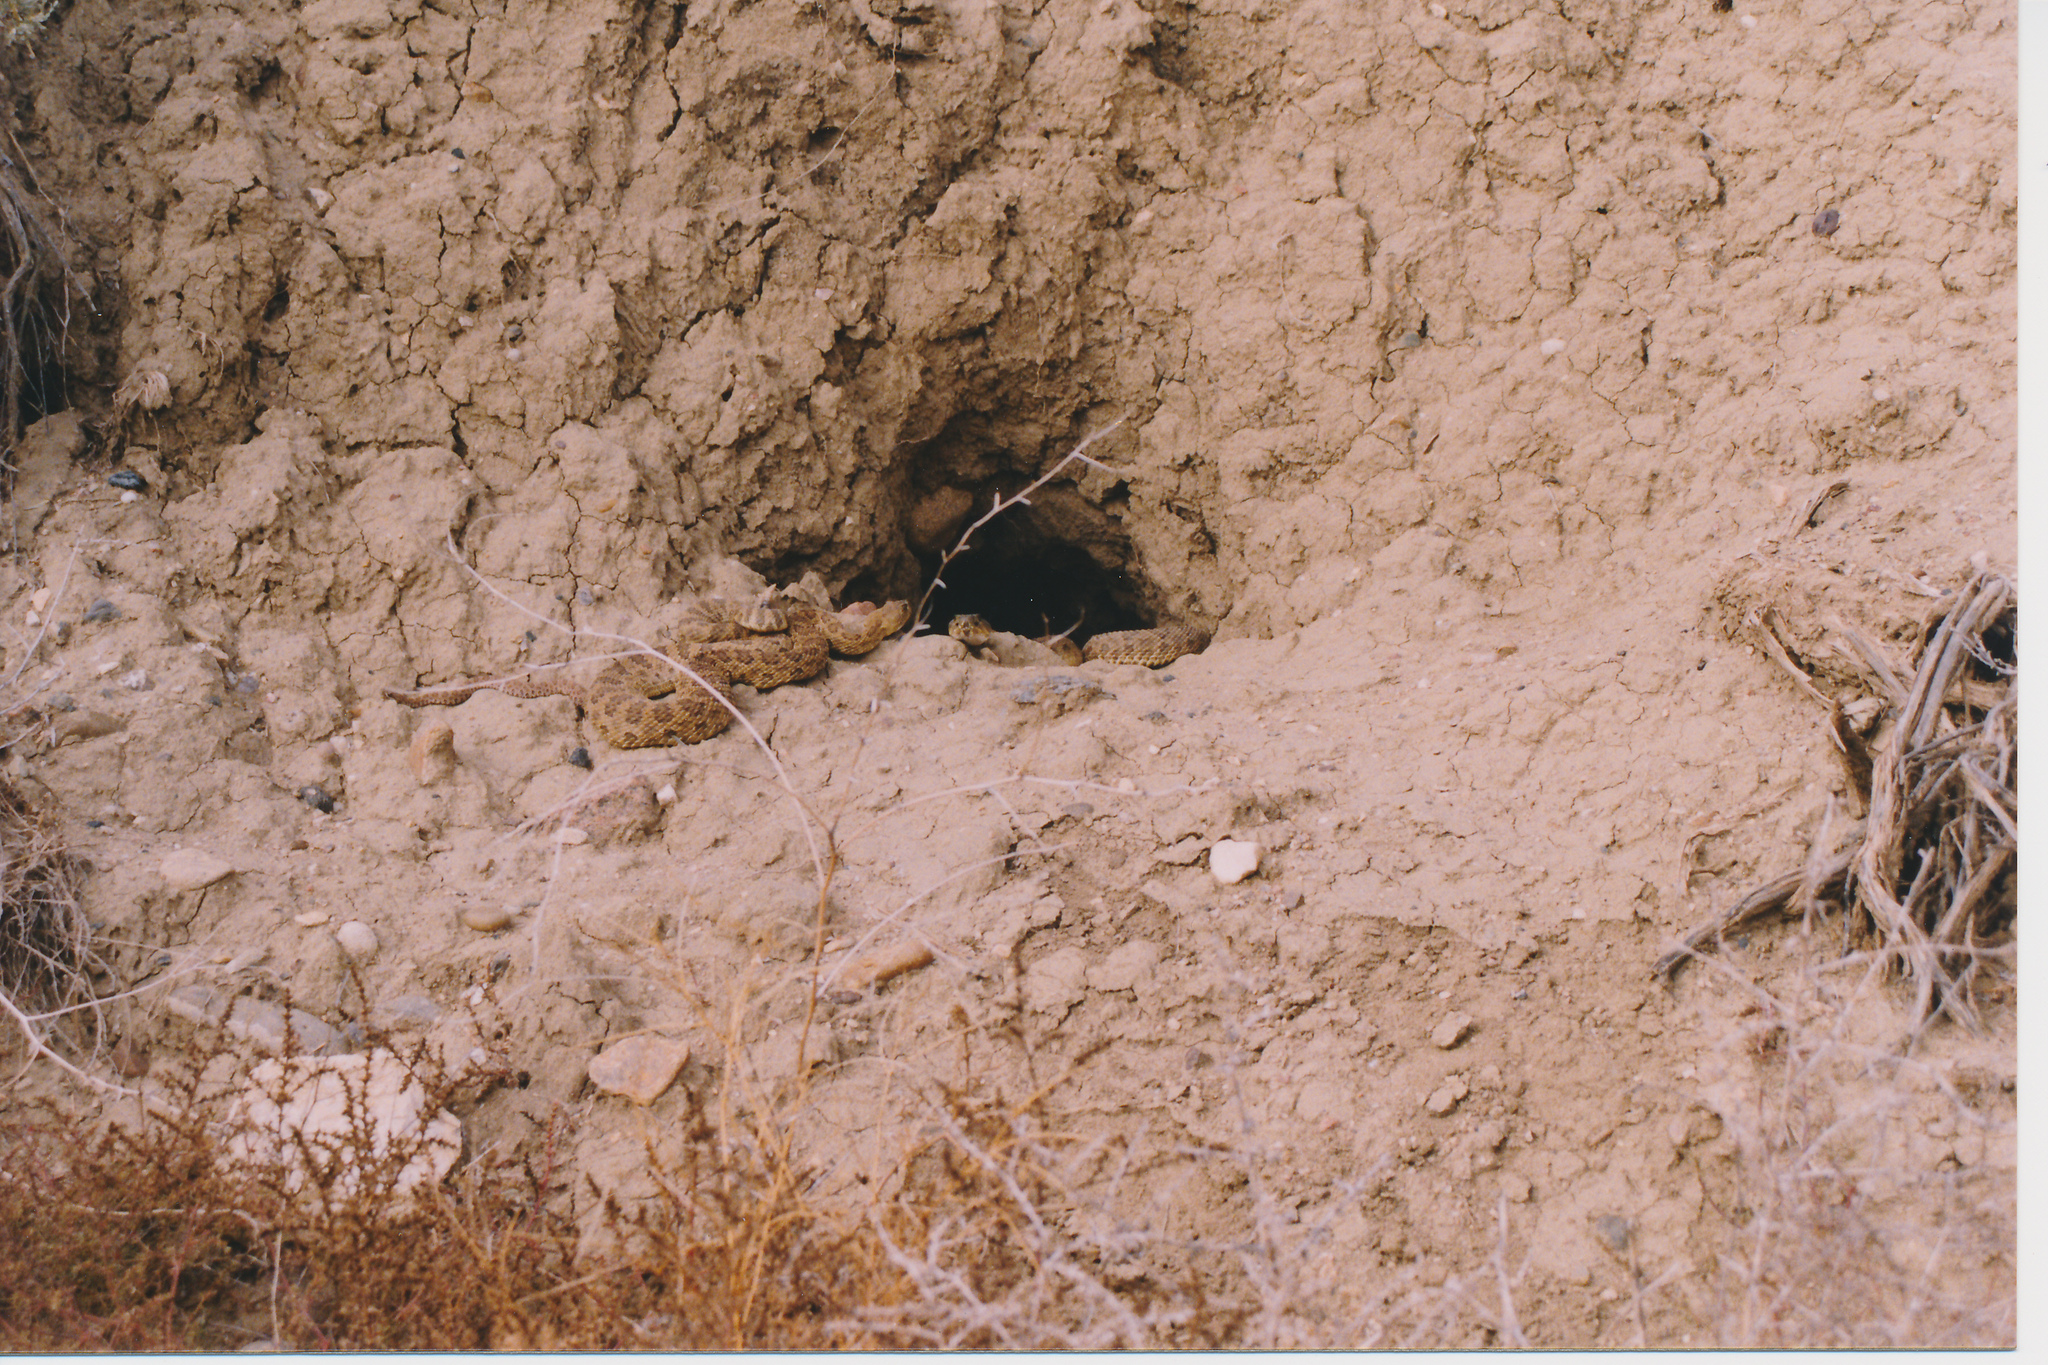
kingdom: Animalia
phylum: Chordata
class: Squamata
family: Viperidae
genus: Crotalus
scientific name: Crotalus viridis
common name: Prairie rattlesnake
